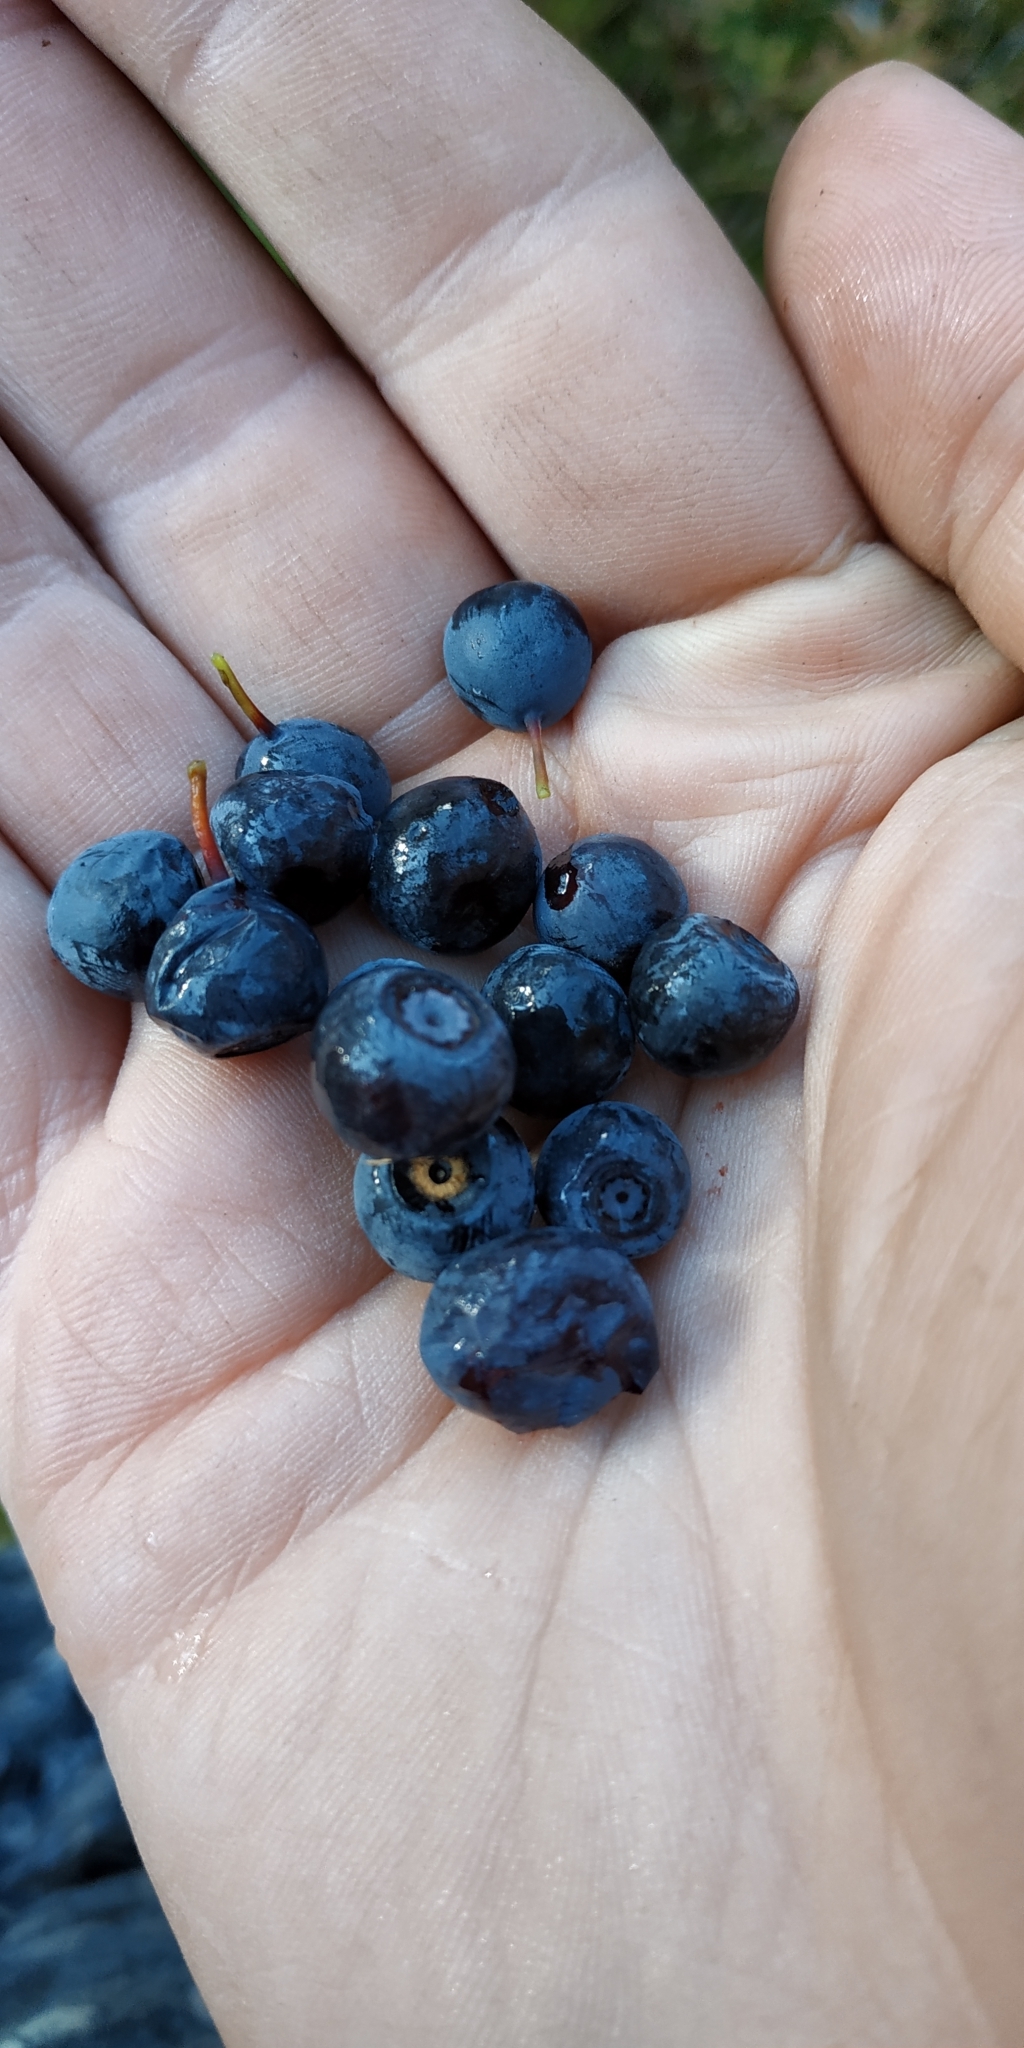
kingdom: Plantae
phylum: Tracheophyta
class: Magnoliopsida
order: Ericales
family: Ericaceae
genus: Vaccinium
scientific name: Vaccinium myrtillus
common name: Bilberry
